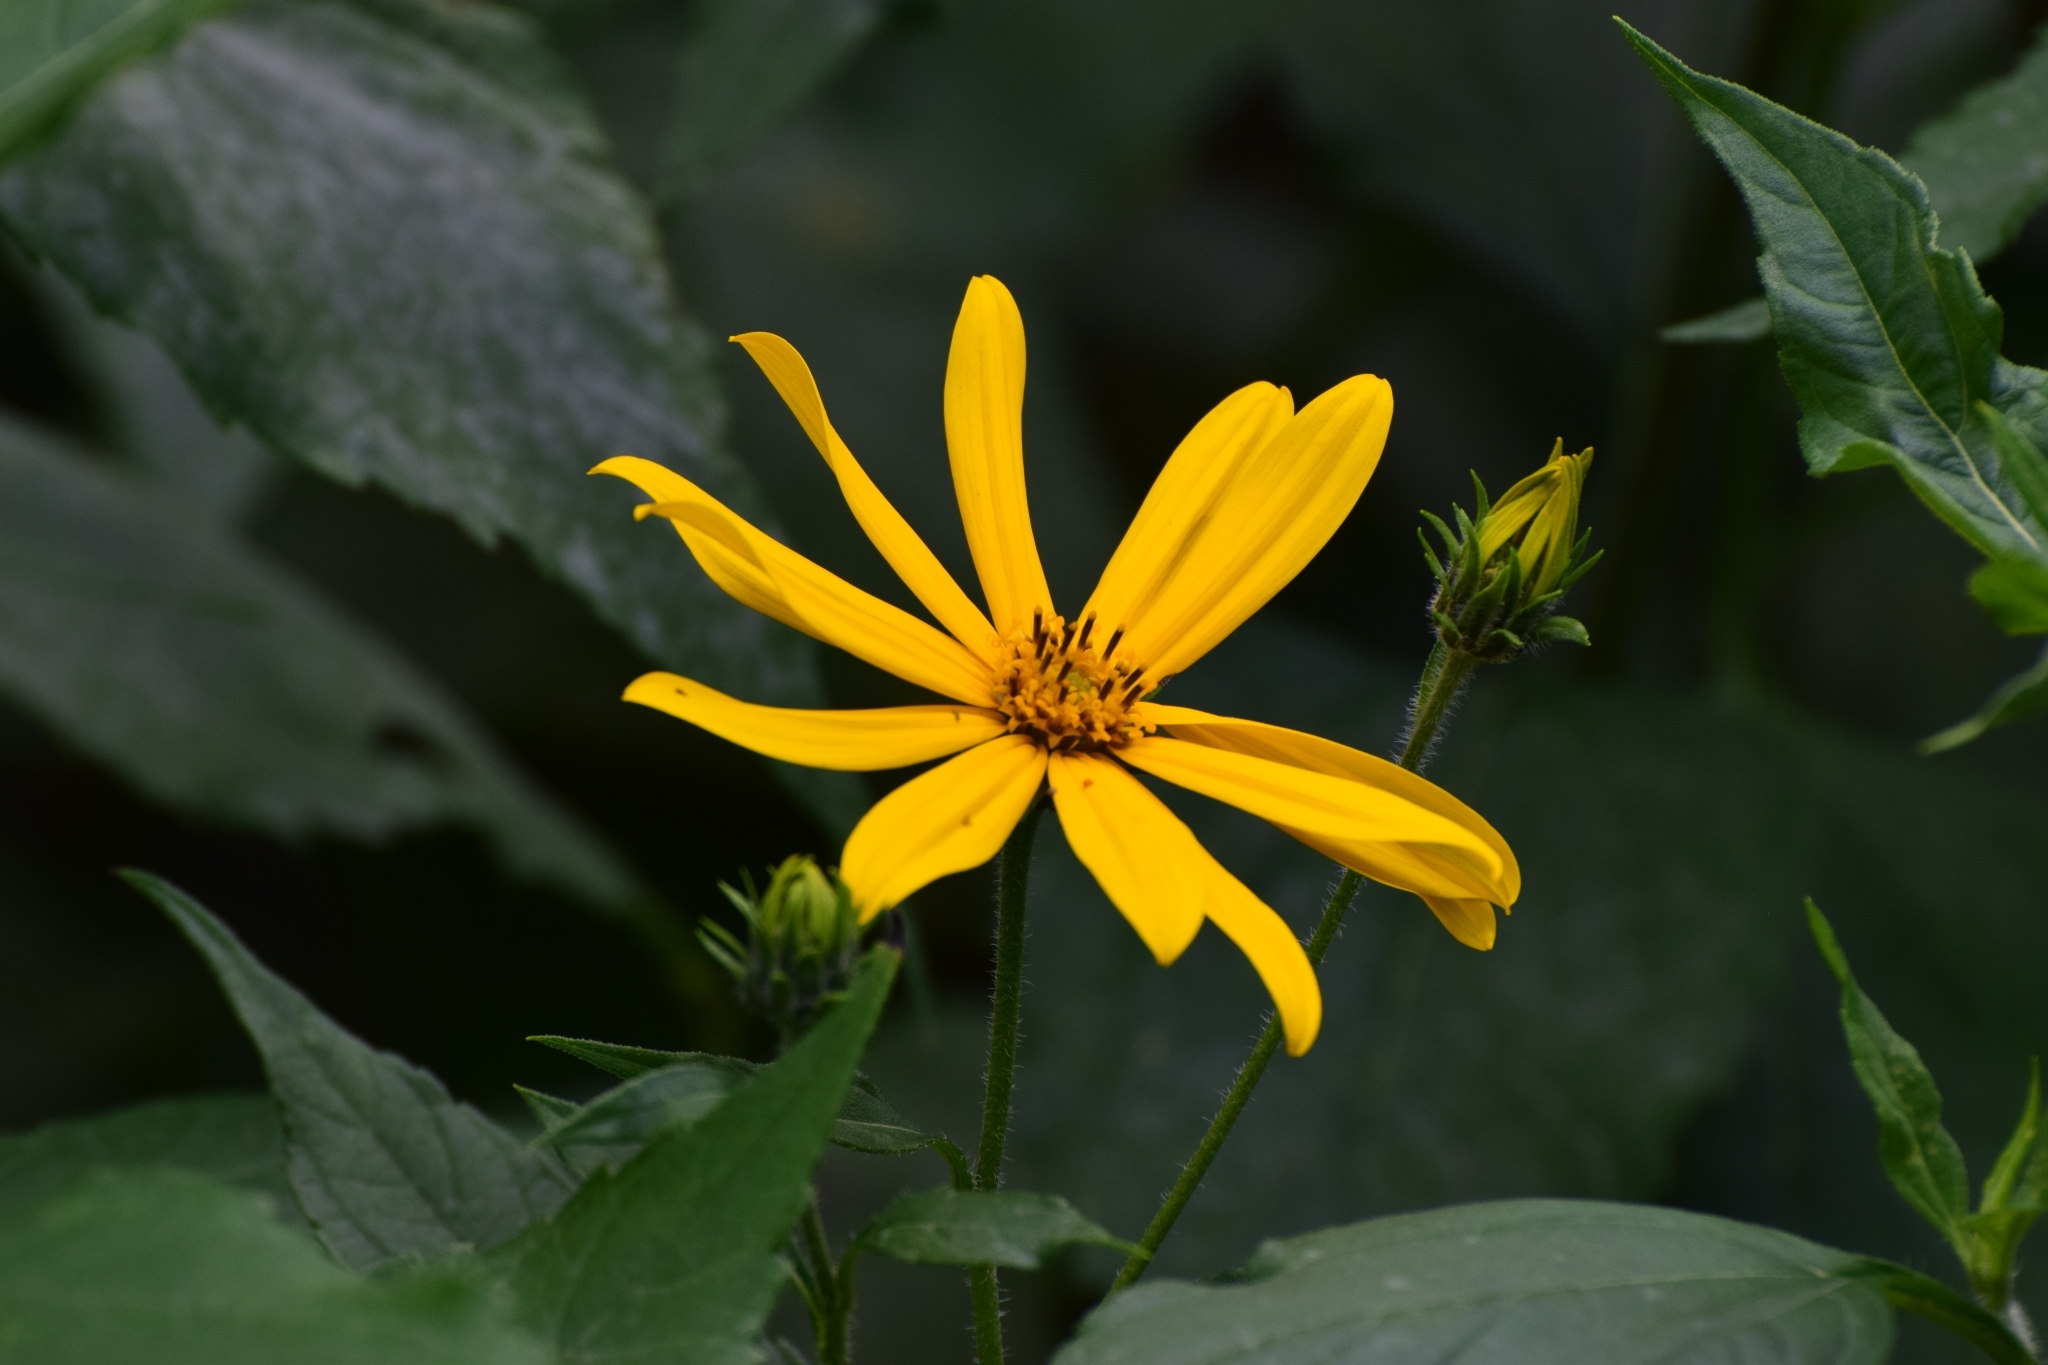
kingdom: Plantae
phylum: Tracheophyta
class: Magnoliopsida
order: Asterales
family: Asteraceae
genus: Helianthus
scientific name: Helianthus tuberosus
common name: Jerusalem artichoke
